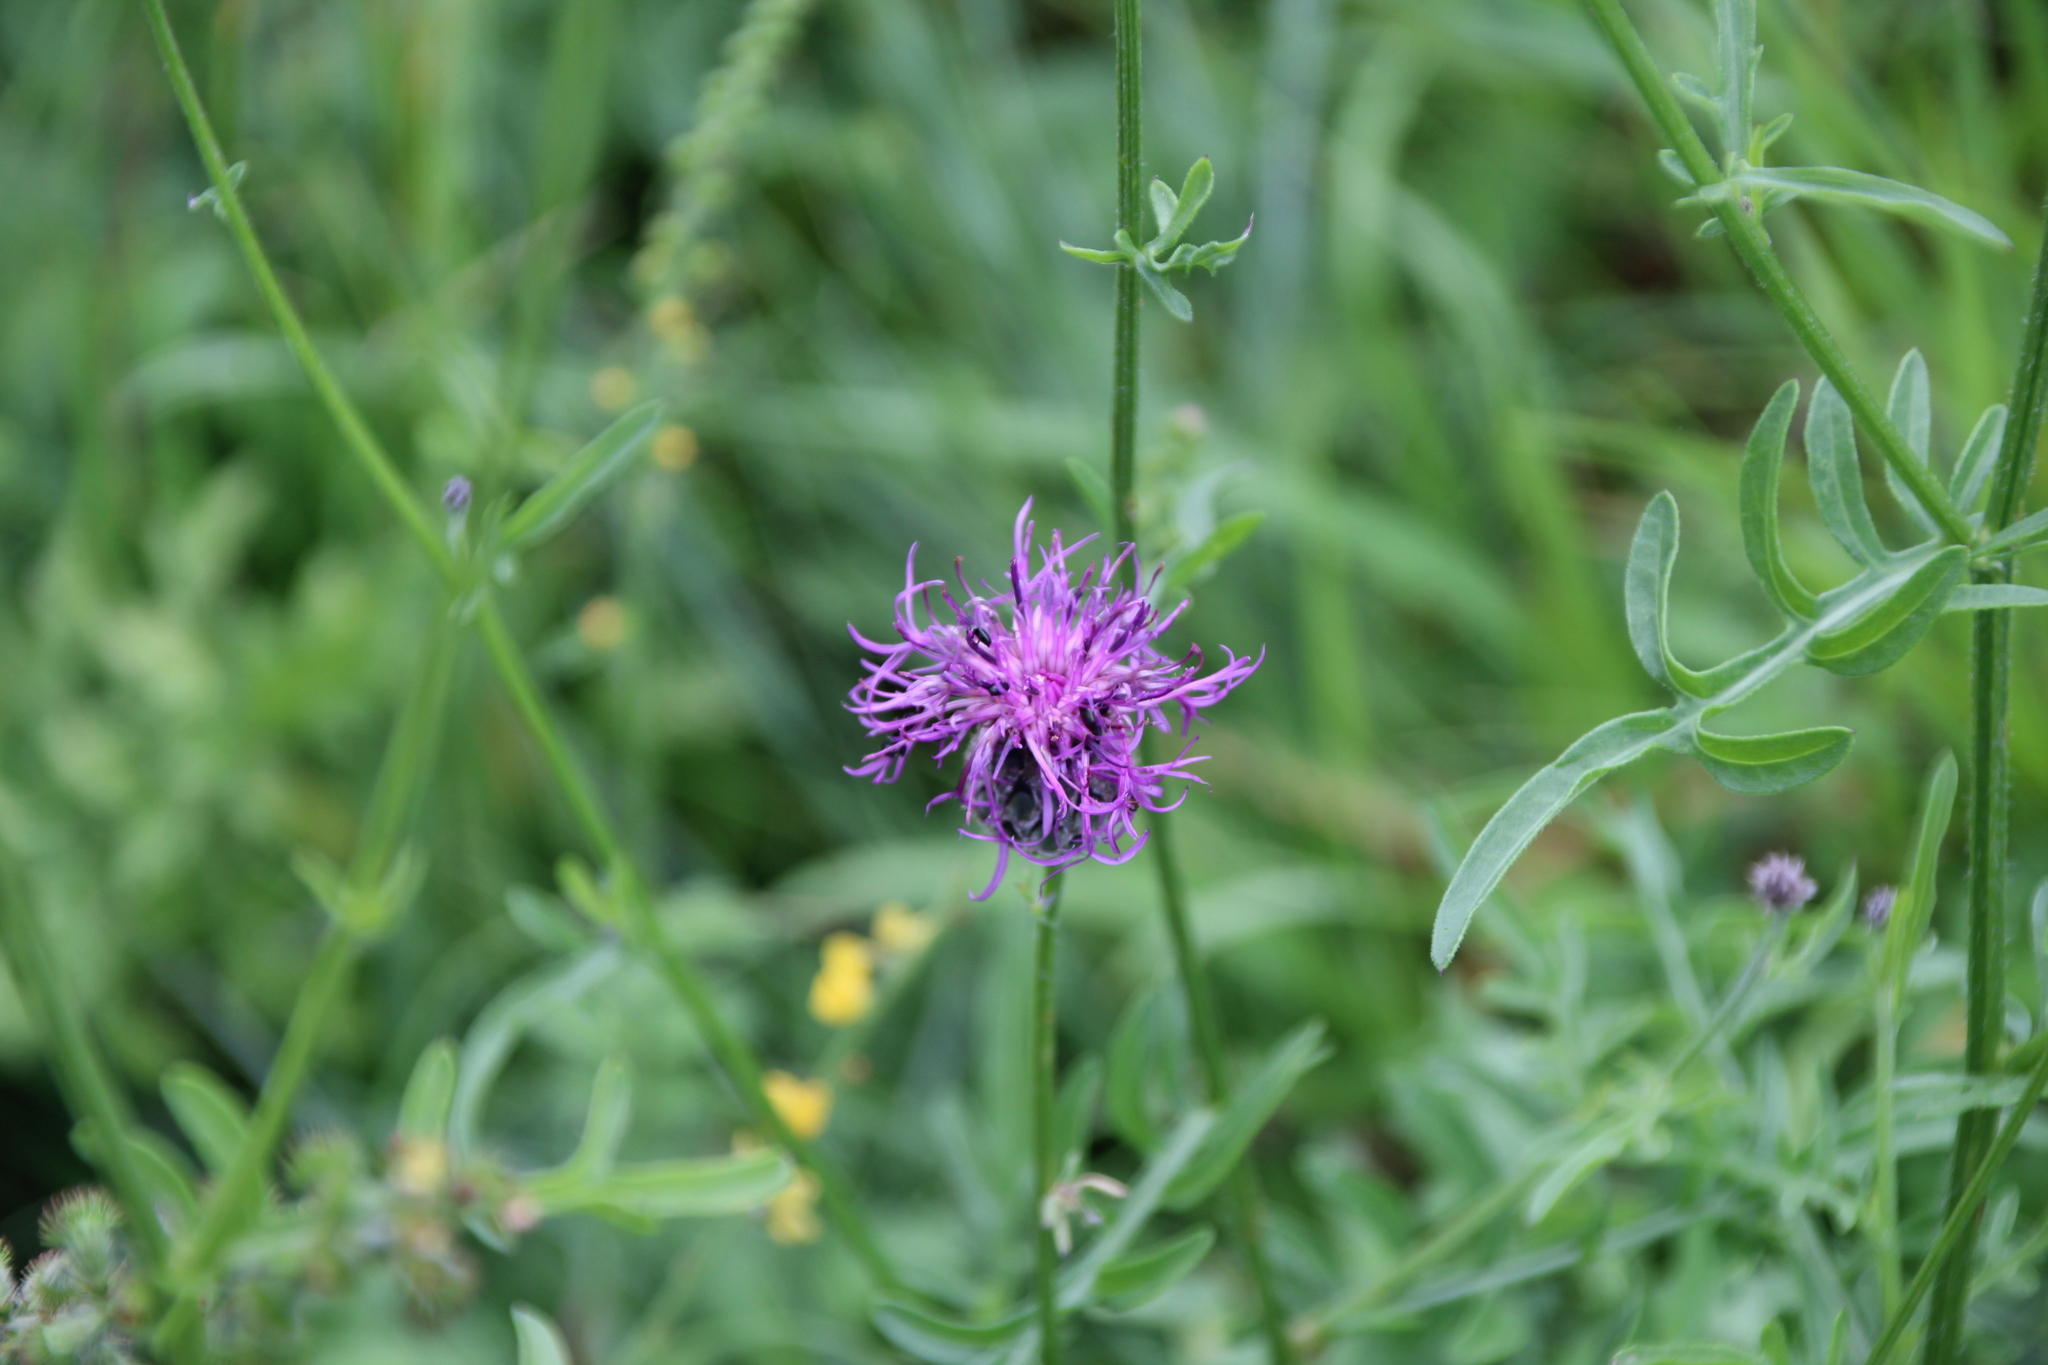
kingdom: Plantae
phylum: Tracheophyta
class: Magnoliopsida
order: Asterales
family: Asteraceae
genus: Centaurea
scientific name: Centaurea scabiosa
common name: Greater knapweed
